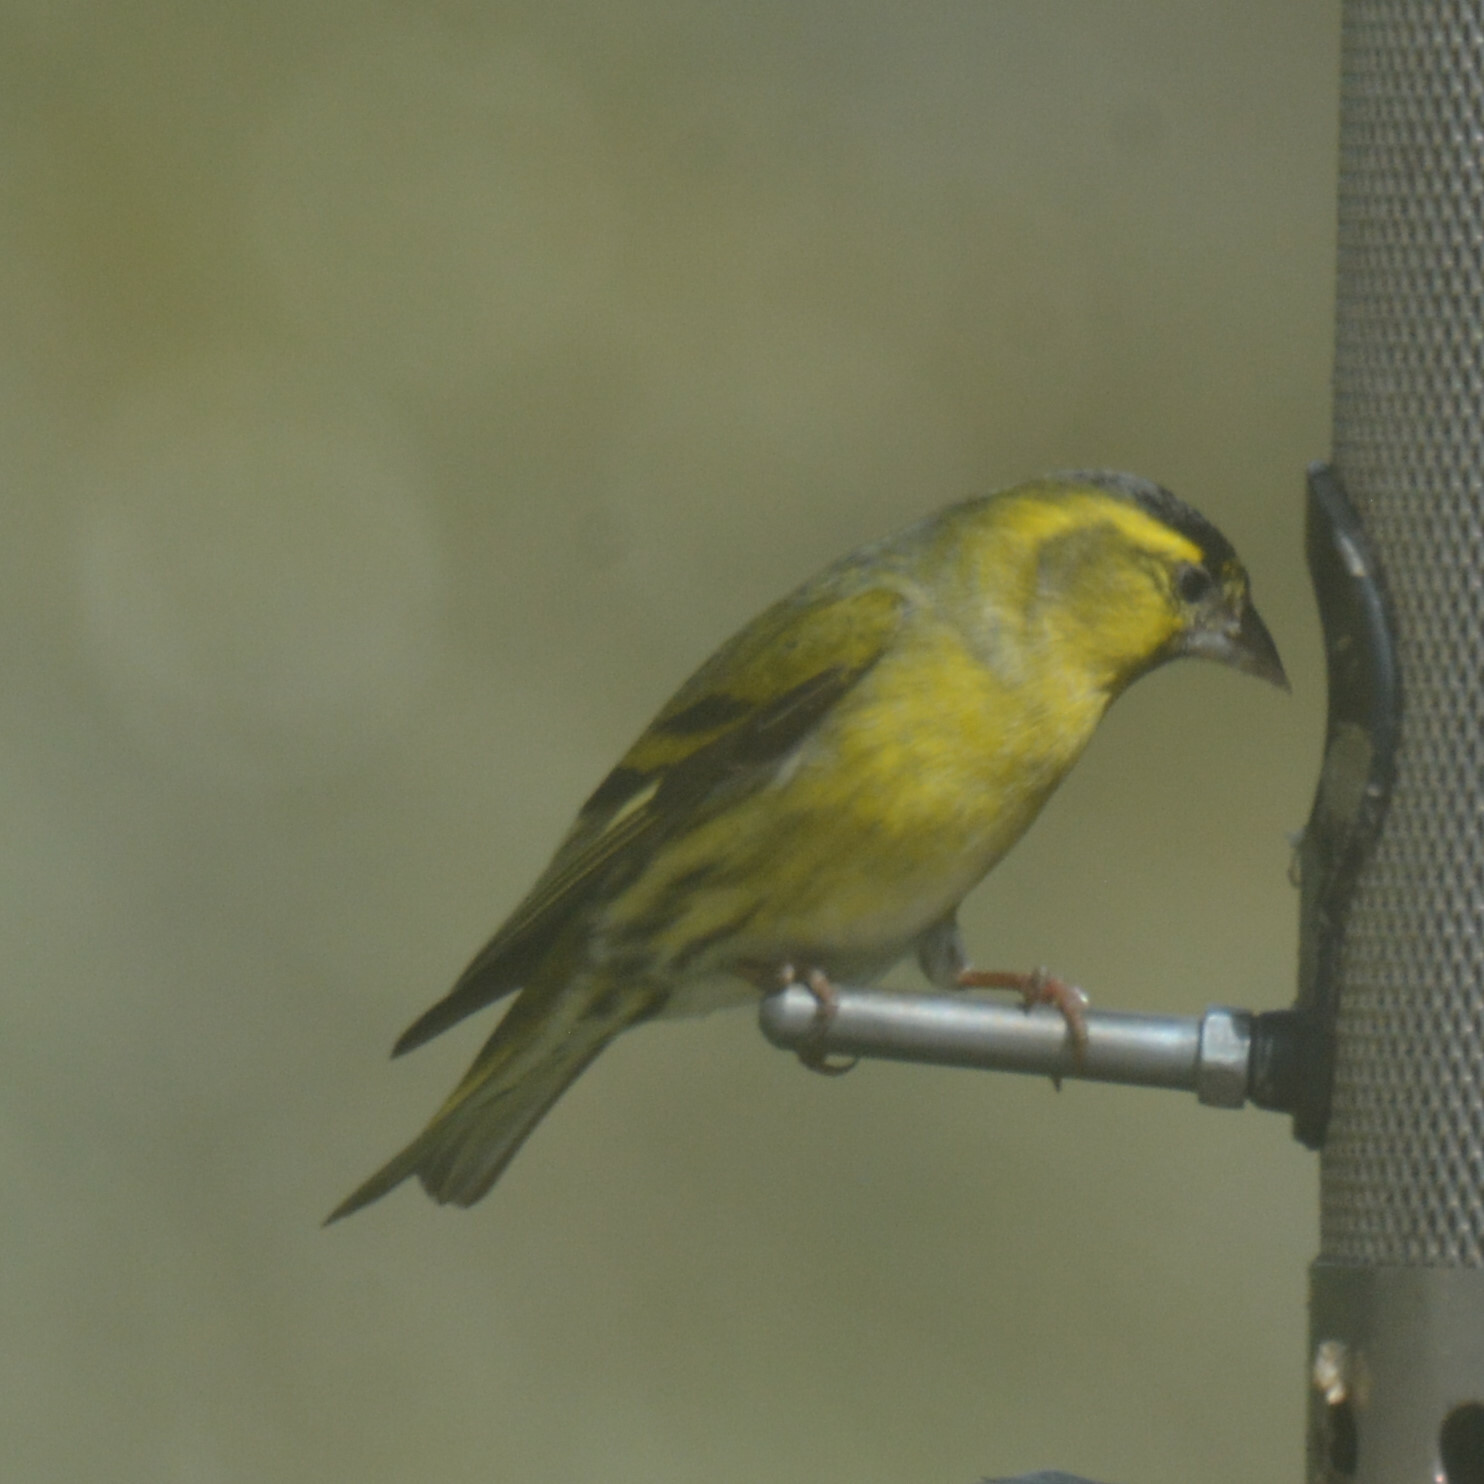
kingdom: Animalia
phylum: Chordata
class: Aves
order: Passeriformes
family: Fringillidae
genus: Spinus
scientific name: Spinus spinus
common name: Eurasian siskin
